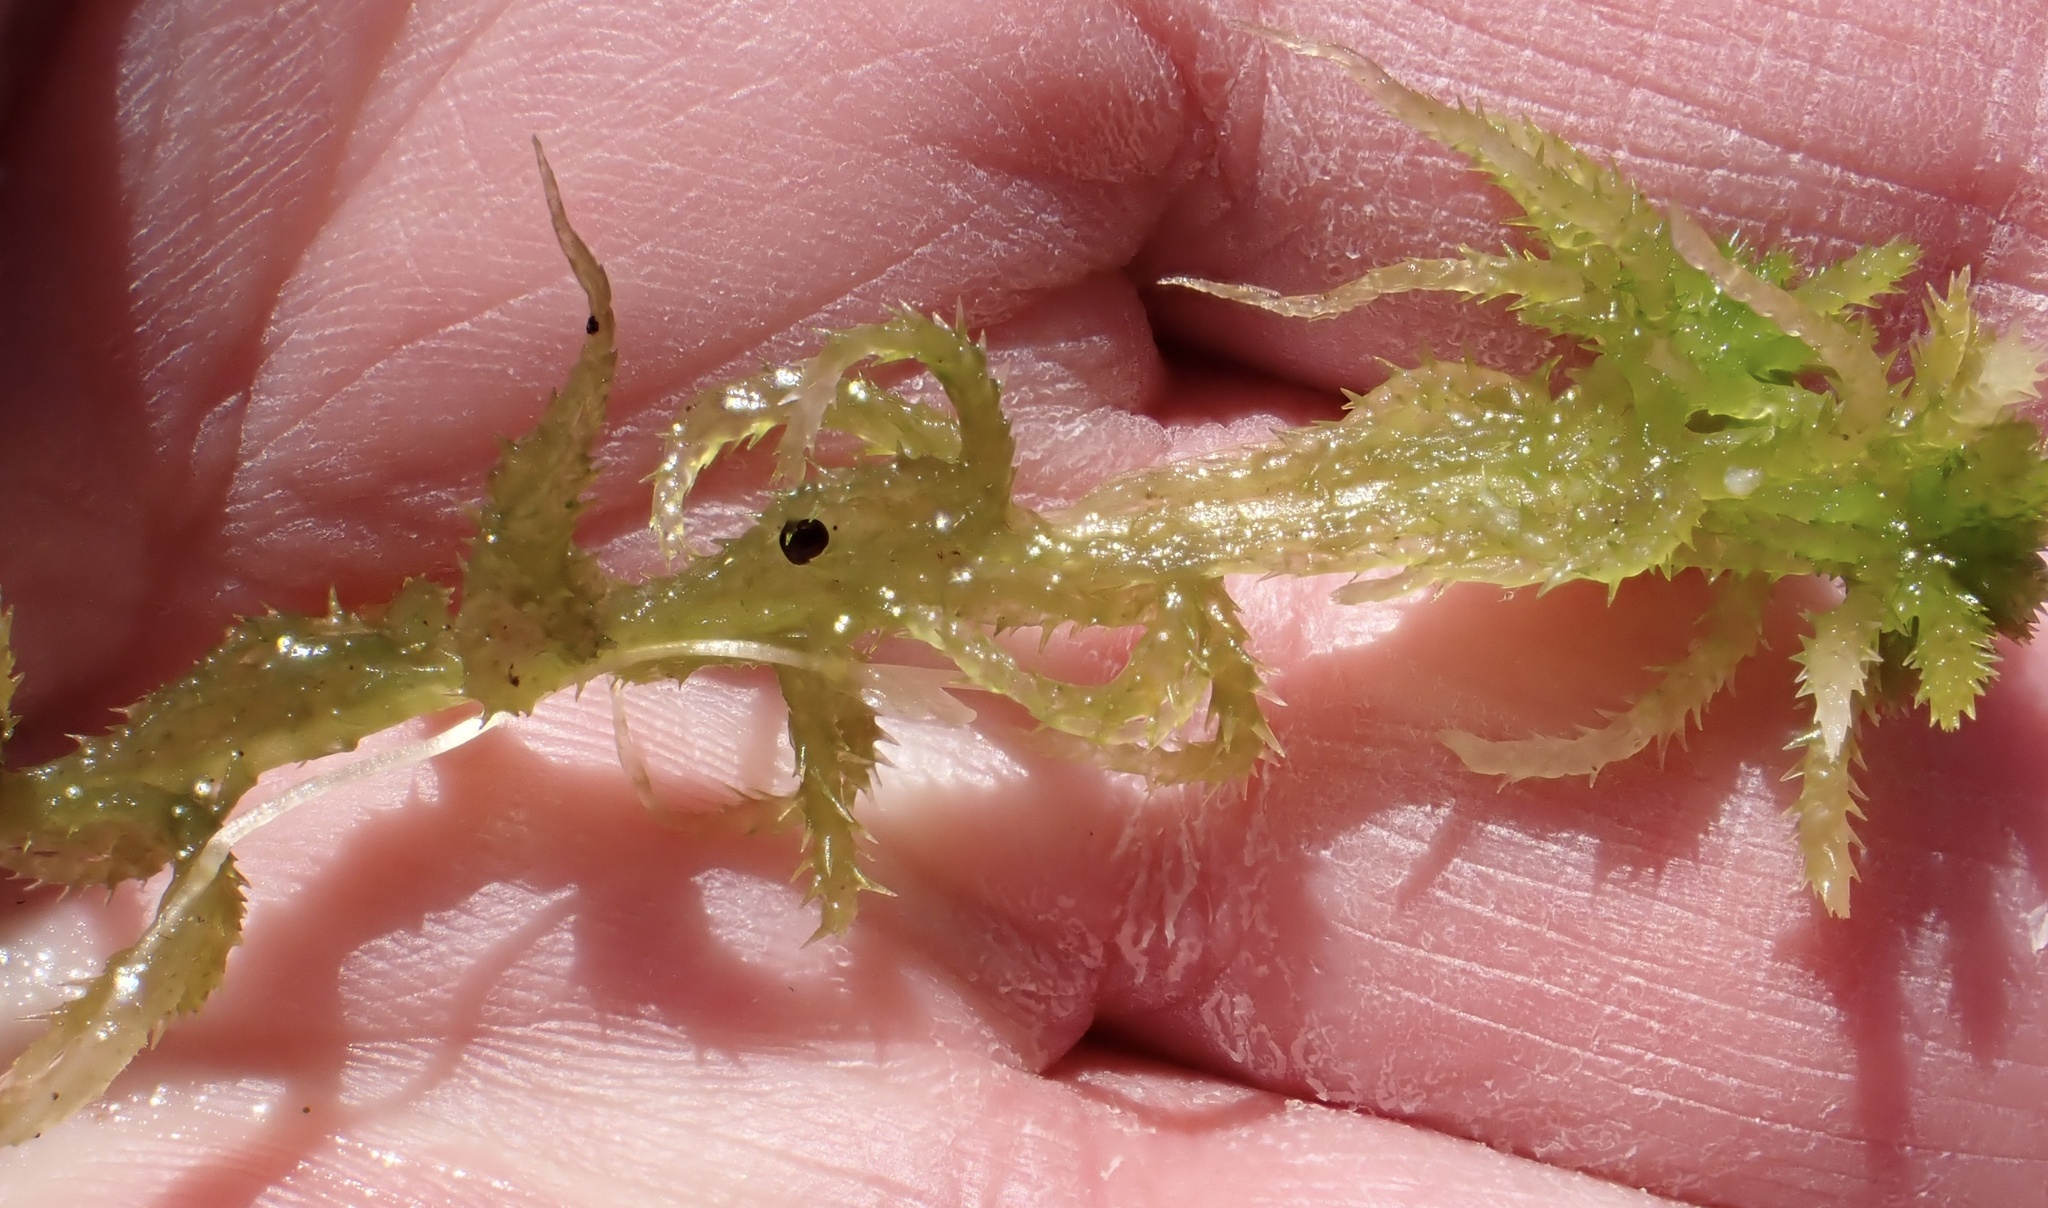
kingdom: Plantae
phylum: Bryophyta
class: Sphagnopsida
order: Sphagnales
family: Sphagnaceae
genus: Sphagnum
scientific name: Sphagnum squarrosum
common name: Shaggy peat moss
